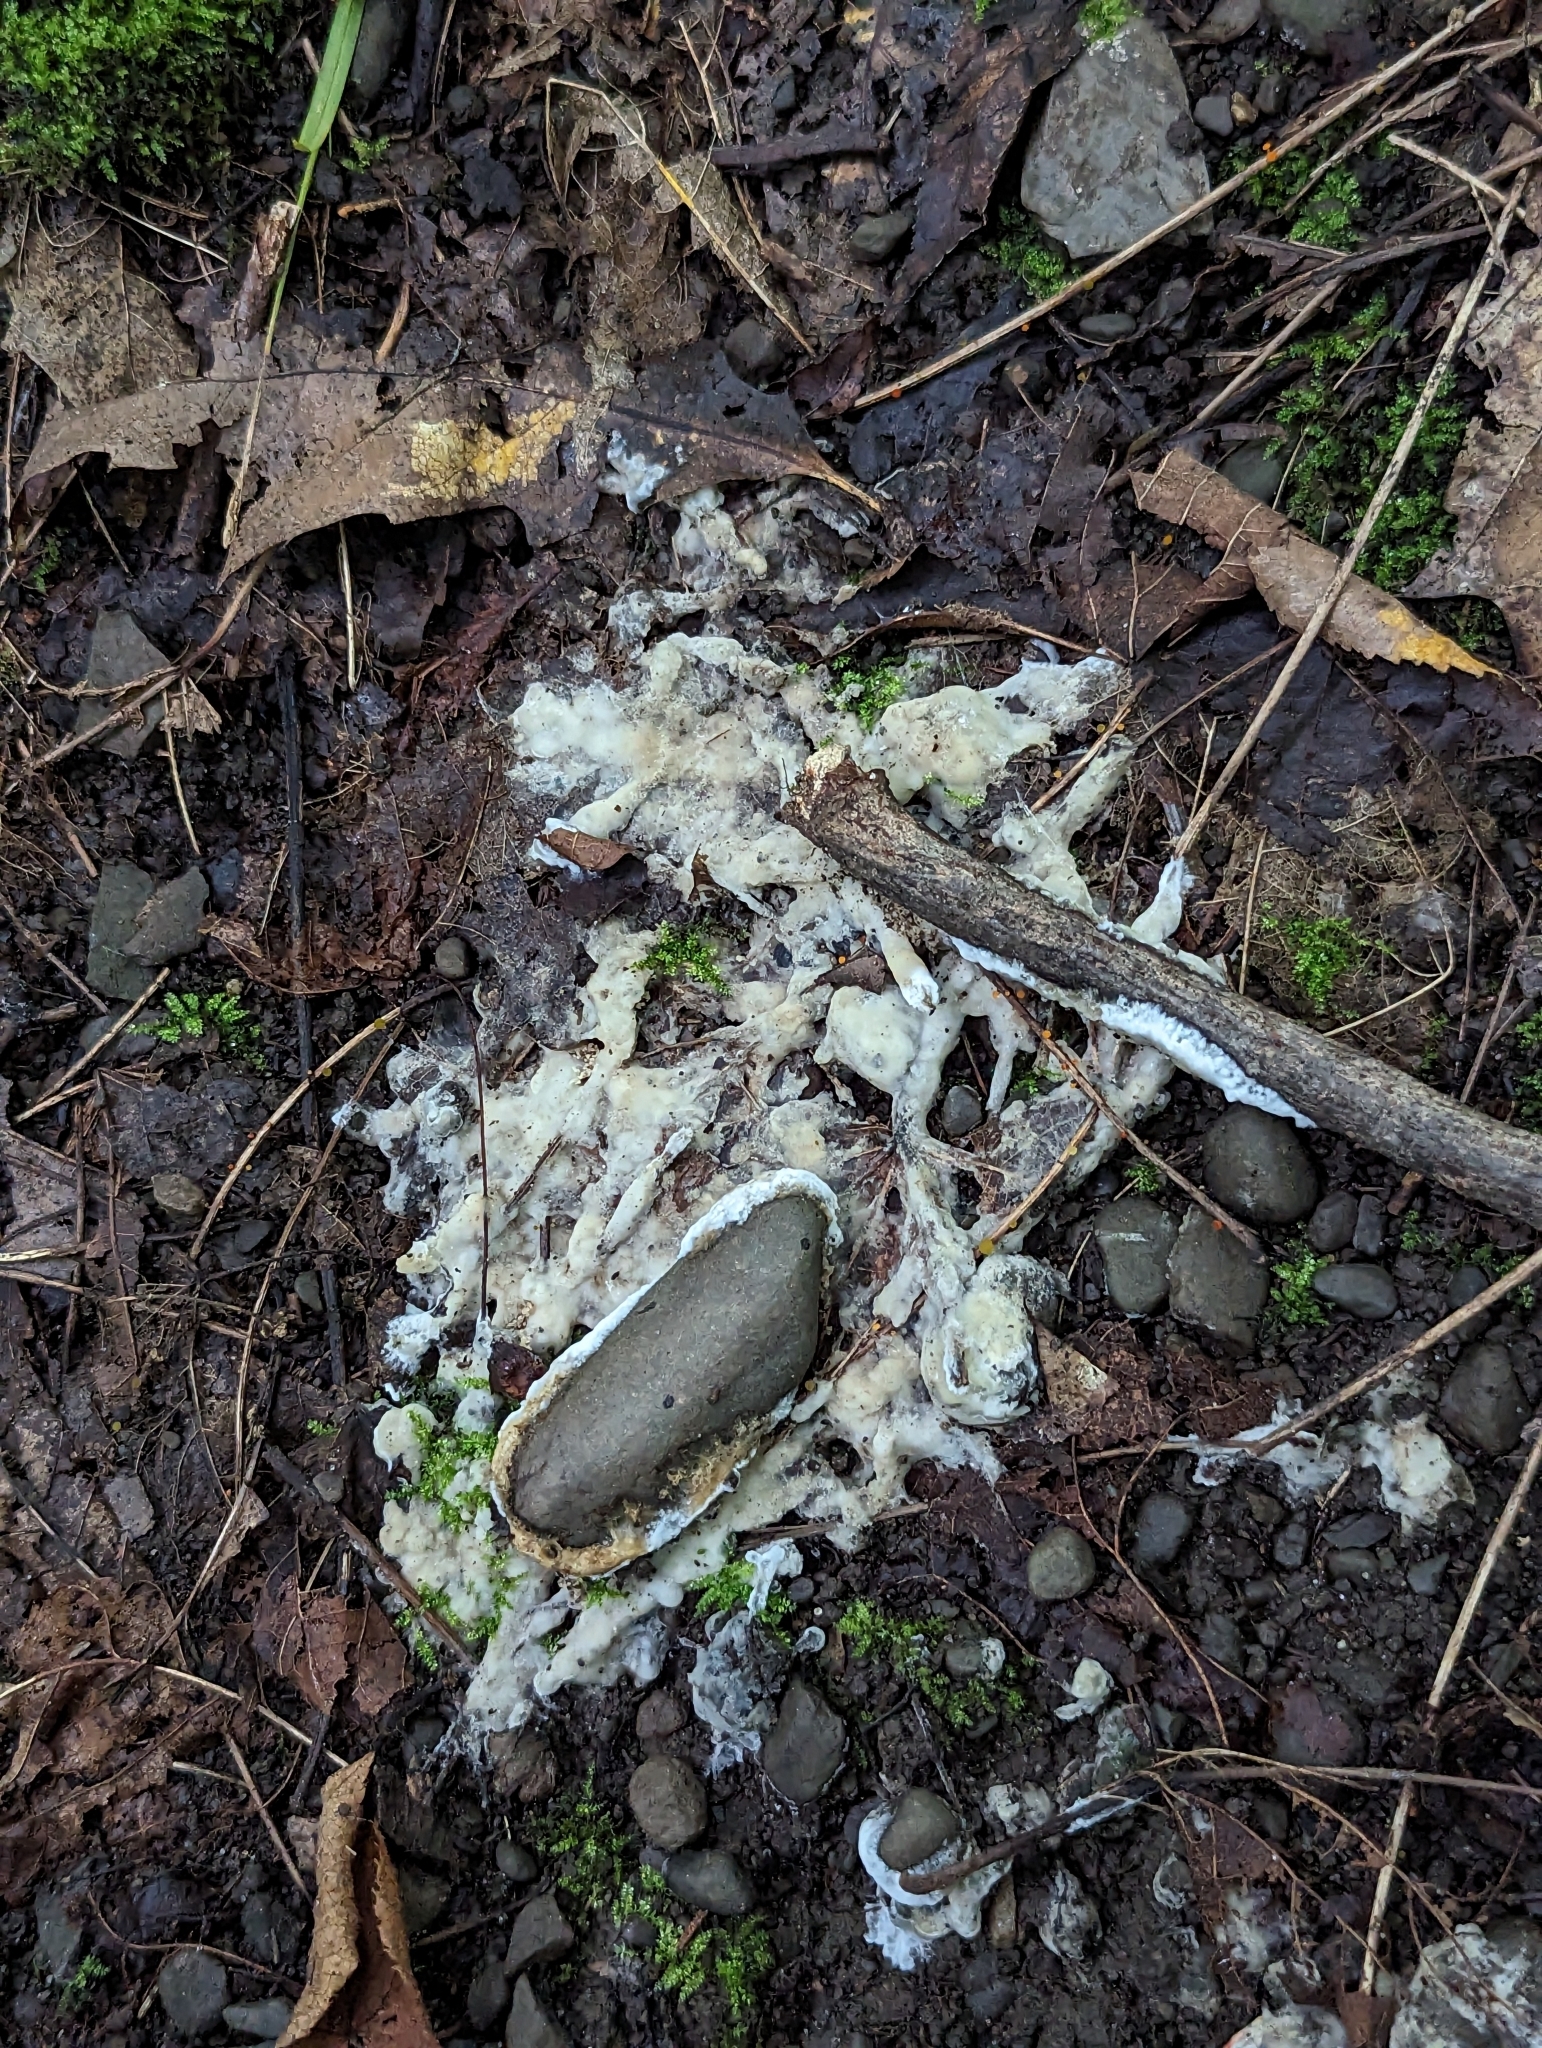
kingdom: Fungi
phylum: Basidiomycota
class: Agaricomycetes
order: Sebacinales
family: Sebacinaceae
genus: Sebacina
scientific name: Sebacina incrustans
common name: Enveloping crust
